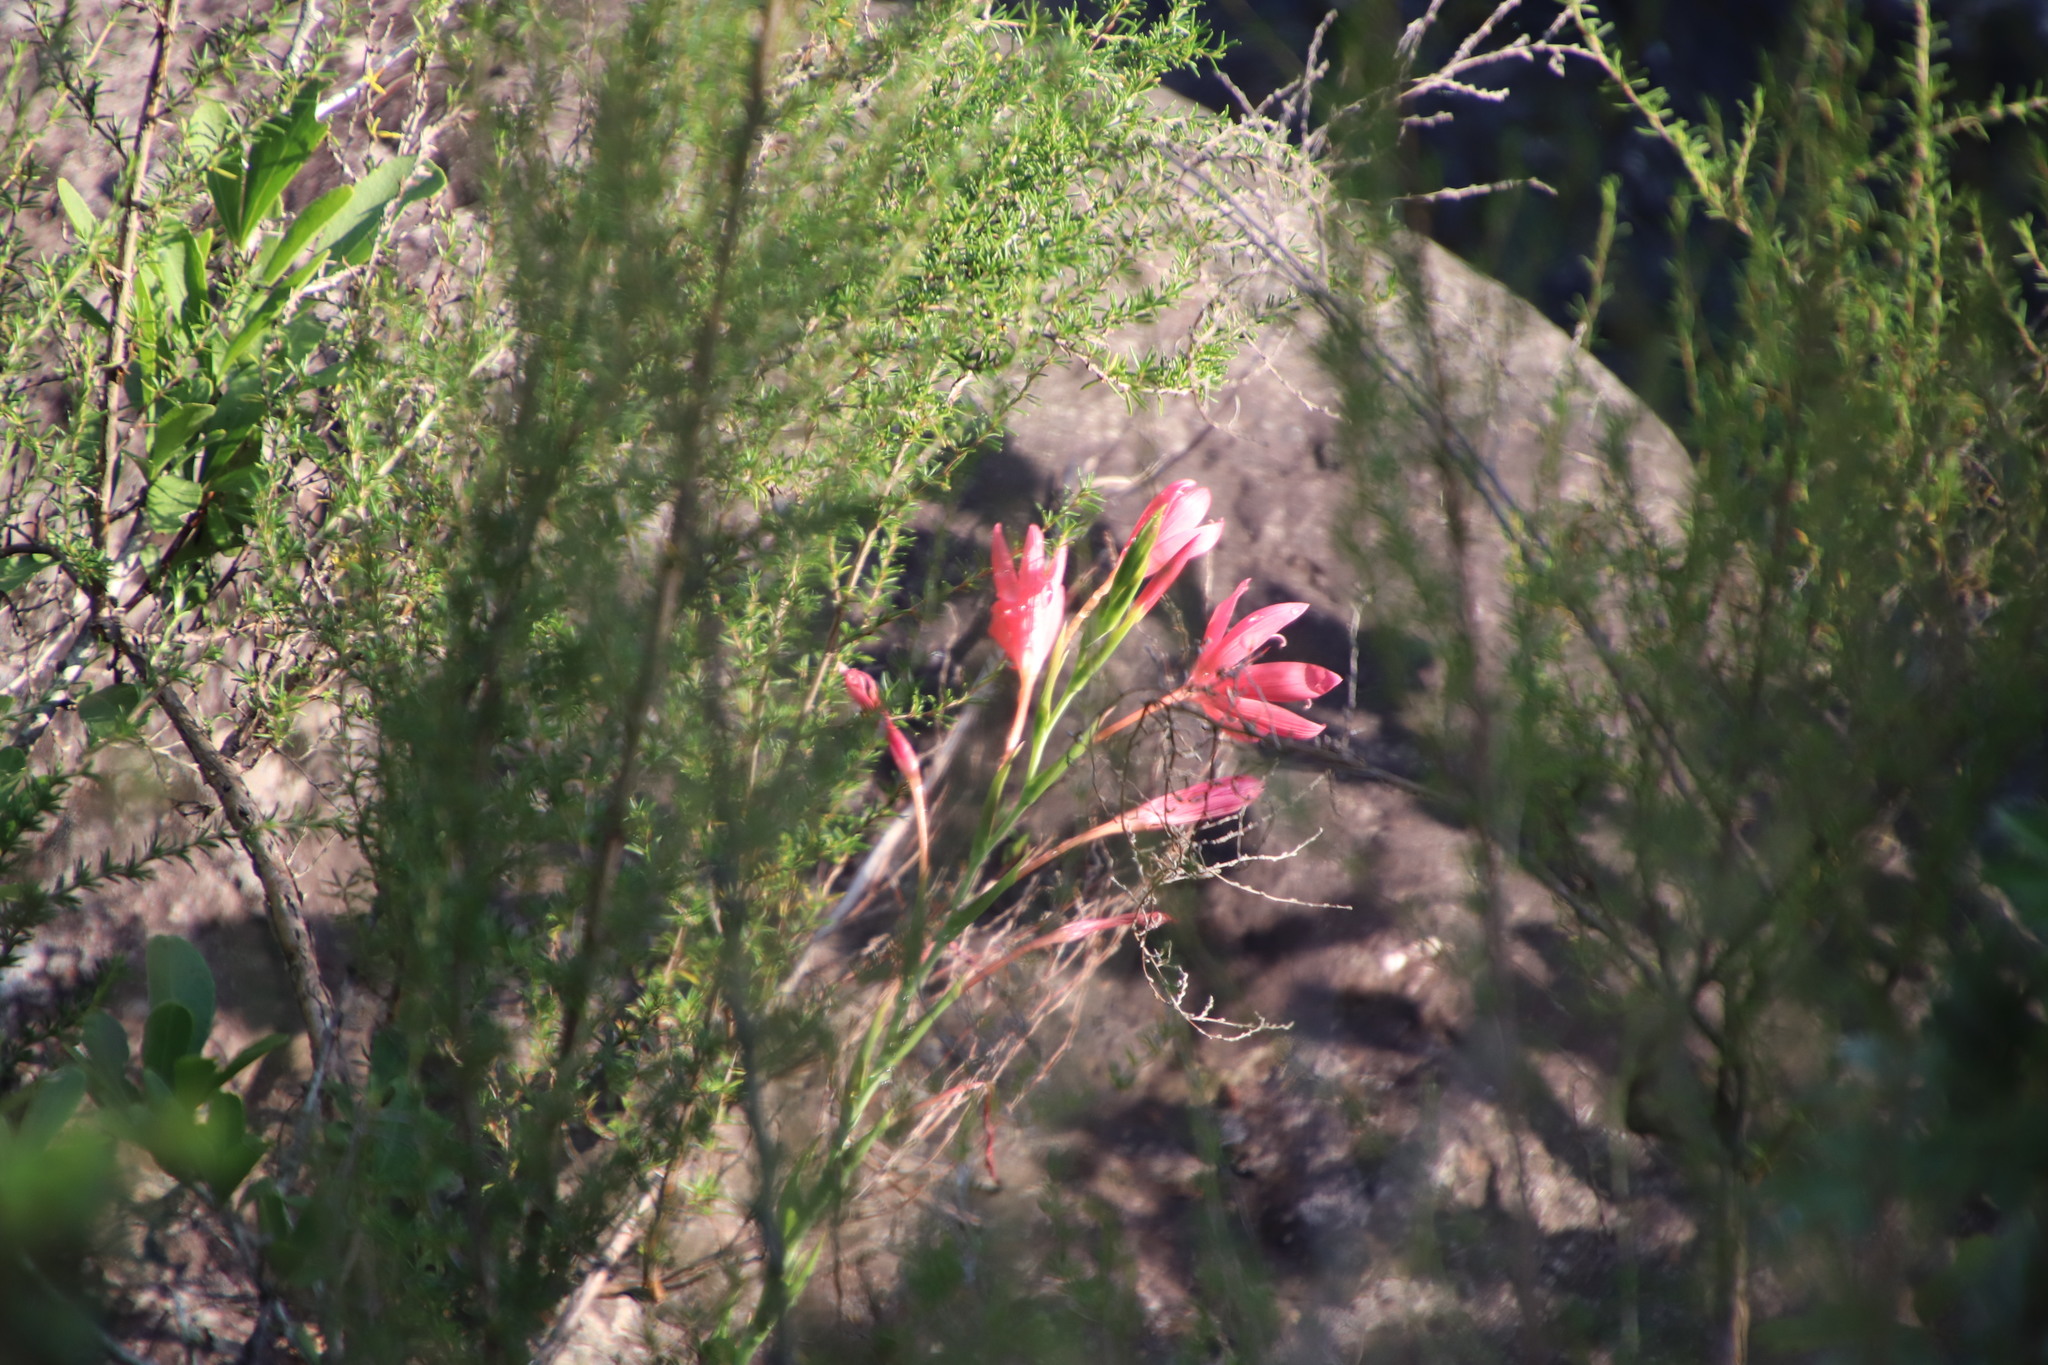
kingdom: Plantae
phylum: Tracheophyta
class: Liliopsida
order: Asparagales
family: Iridaceae
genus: Hesperantha
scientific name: Hesperantha coccinea
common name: River-lily
